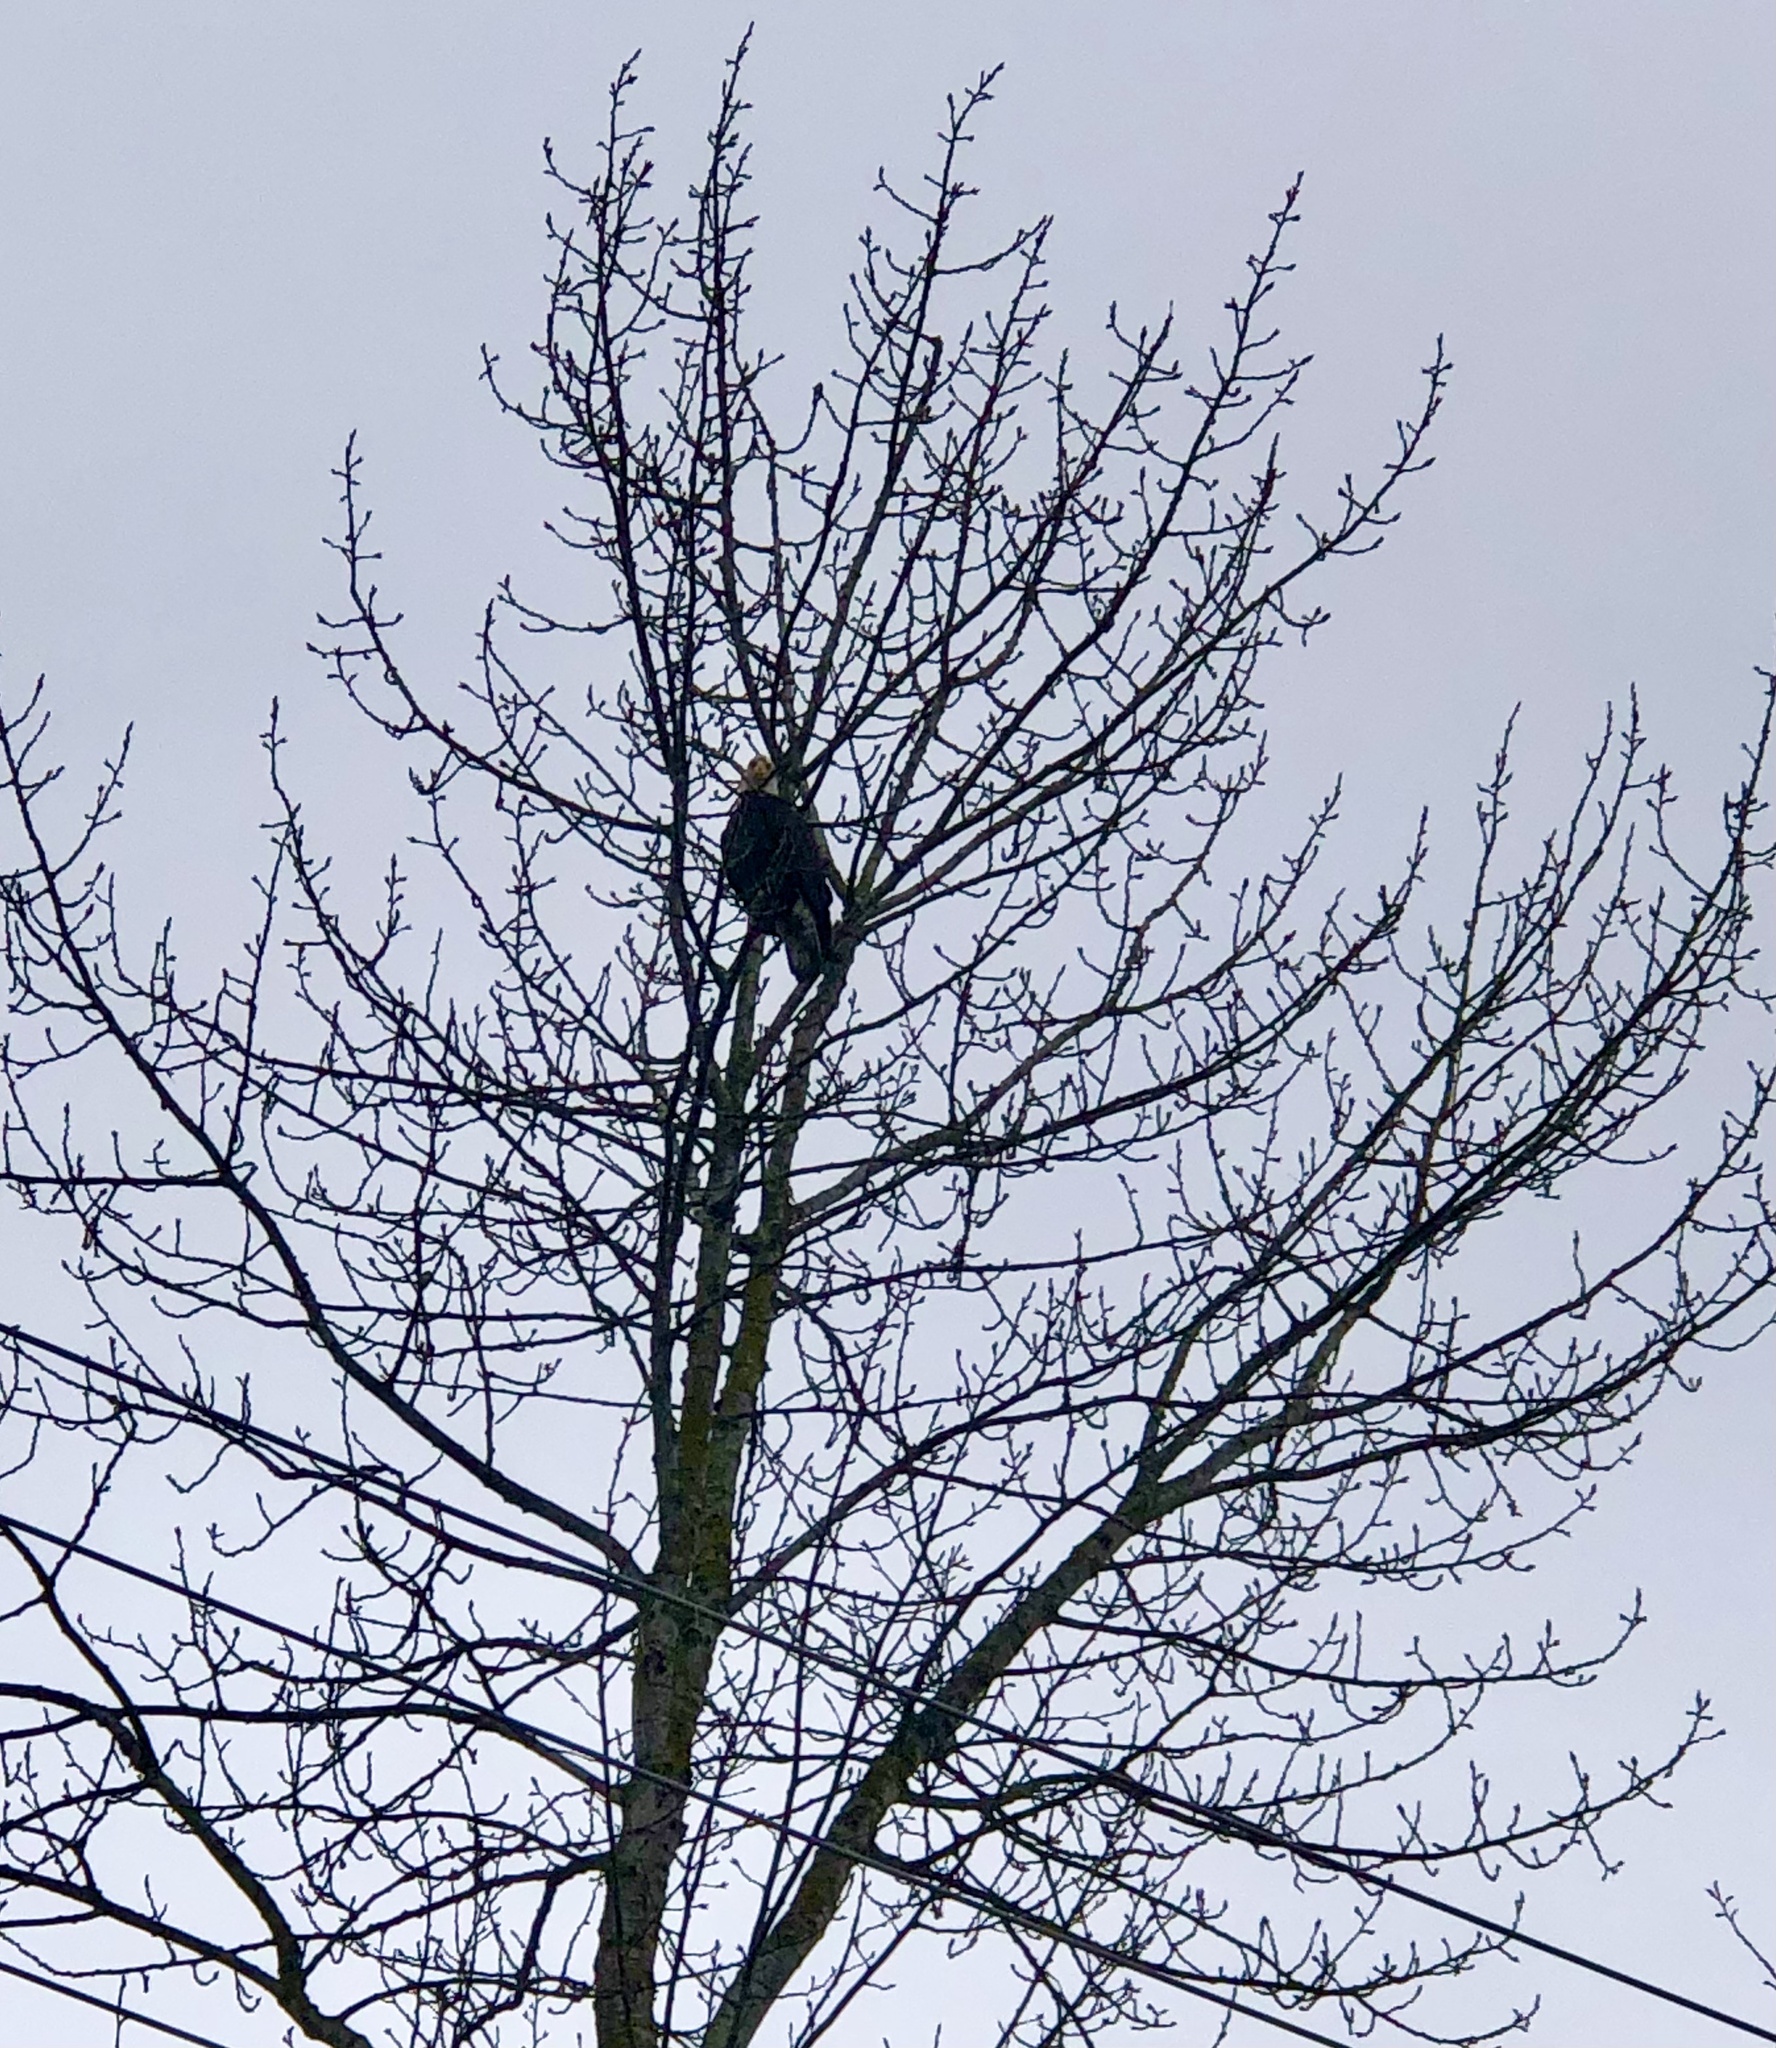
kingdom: Animalia
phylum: Chordata
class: Aves
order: Accipitriformes
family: Accipitridae
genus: Haliaeetus
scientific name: Haliaeetus leucocephalus
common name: Bald eagle
